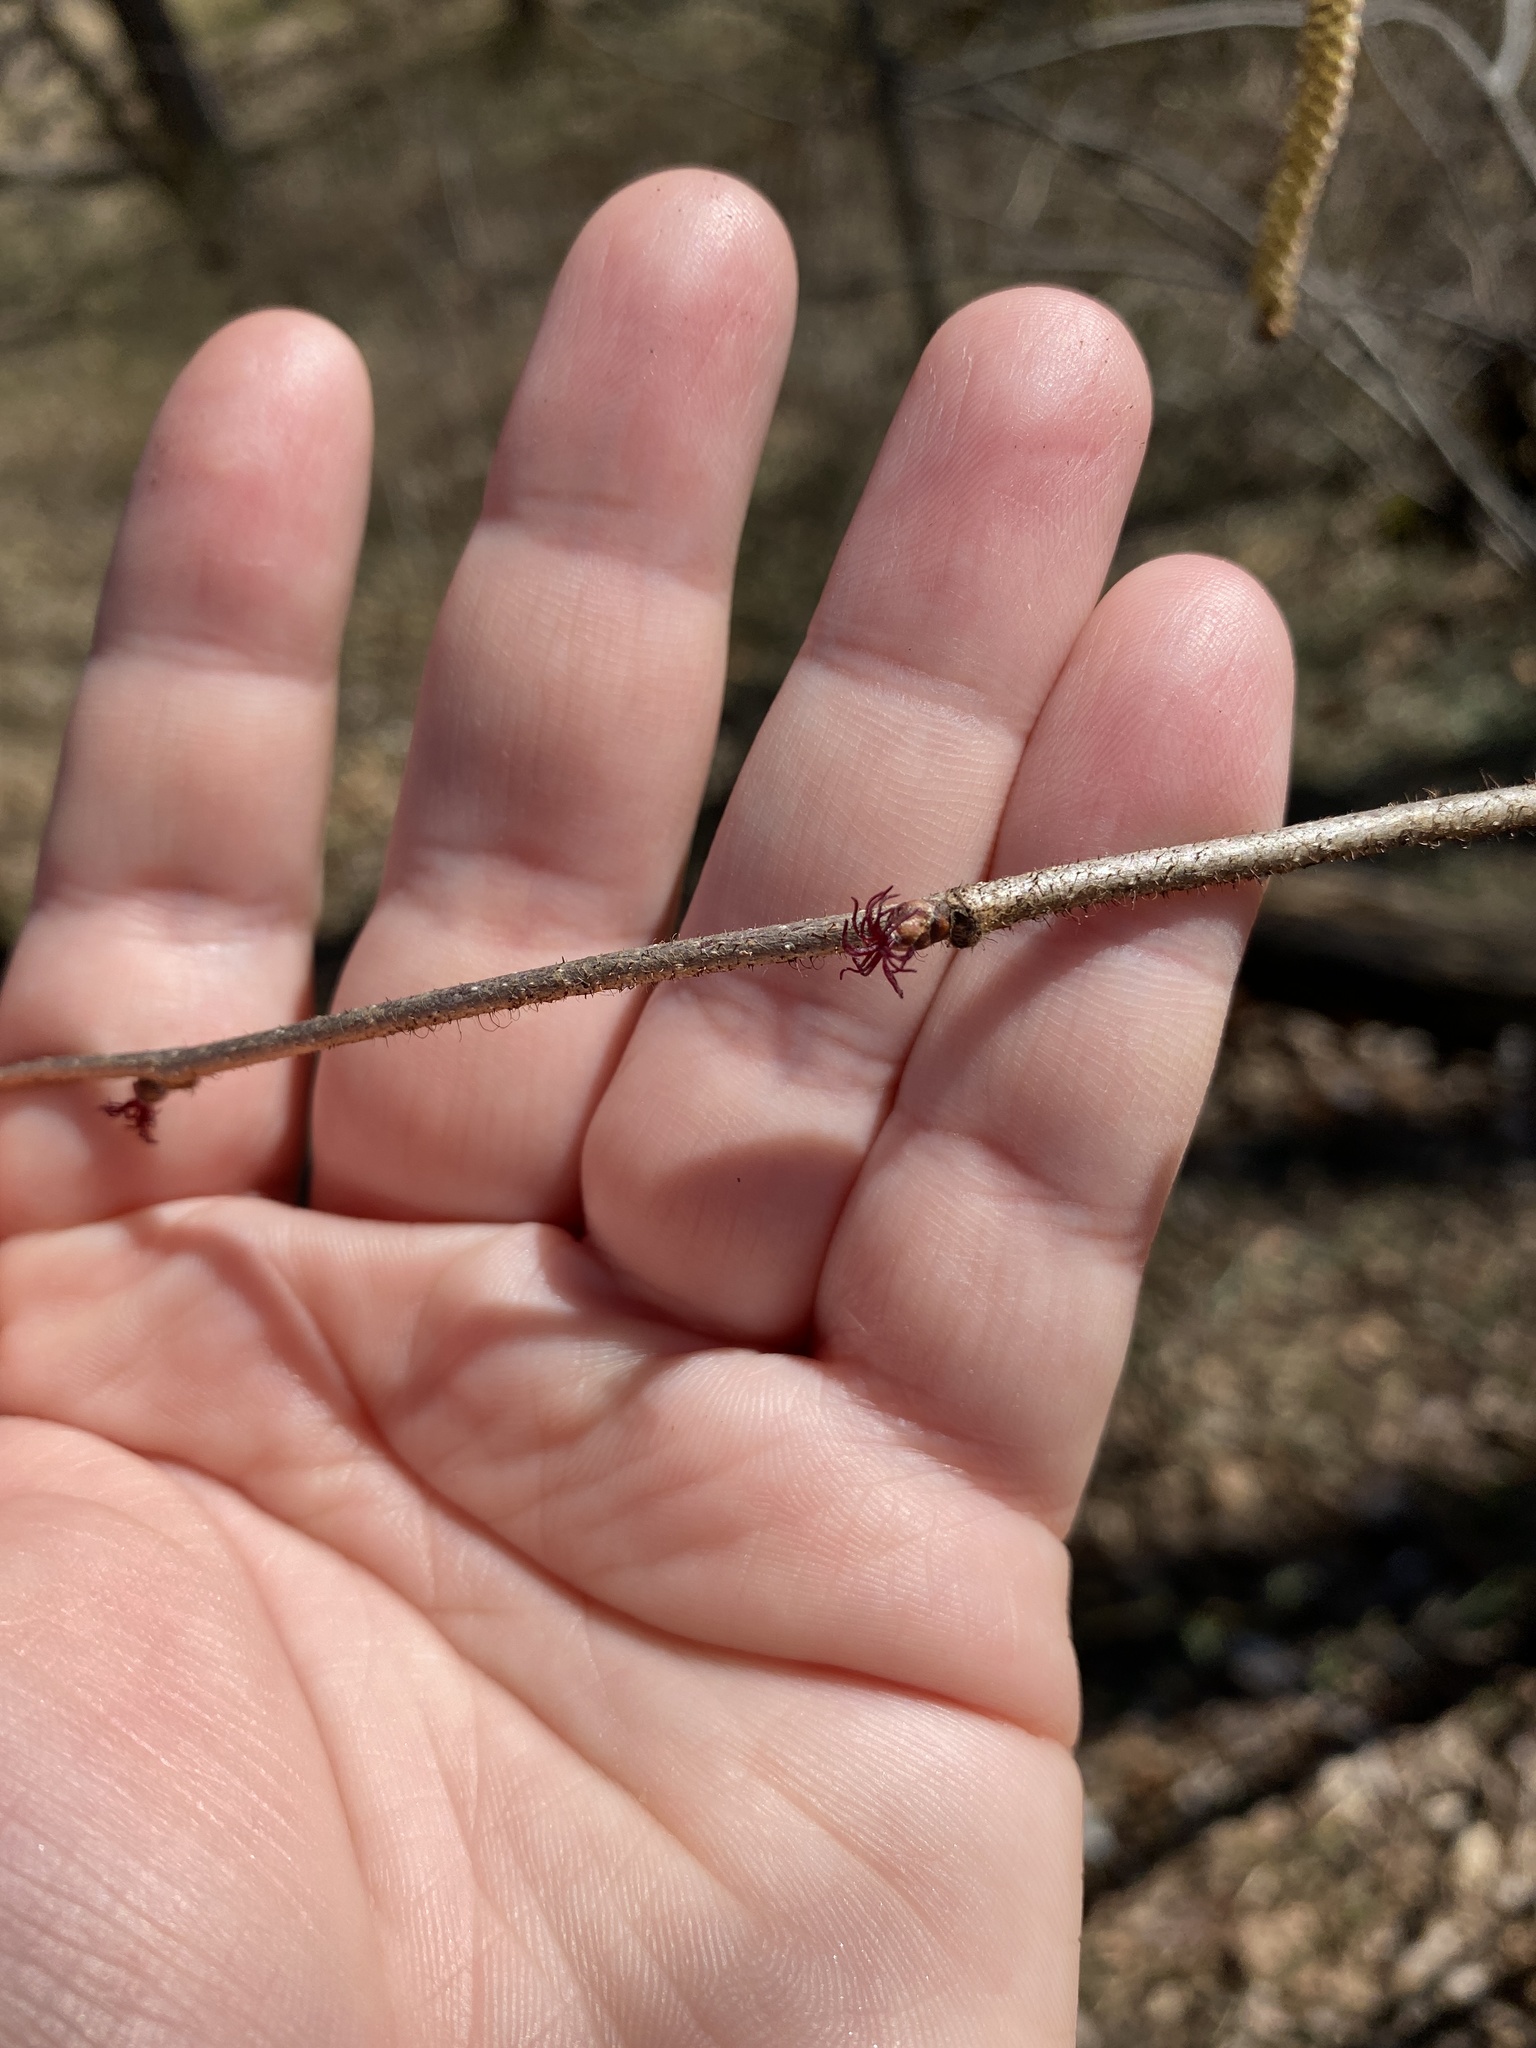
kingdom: Plantae
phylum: Tracheophyta
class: Magnoliopsida
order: Fagales
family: Betulaceae
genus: Corylus
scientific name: Corylus americana
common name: American hazel
